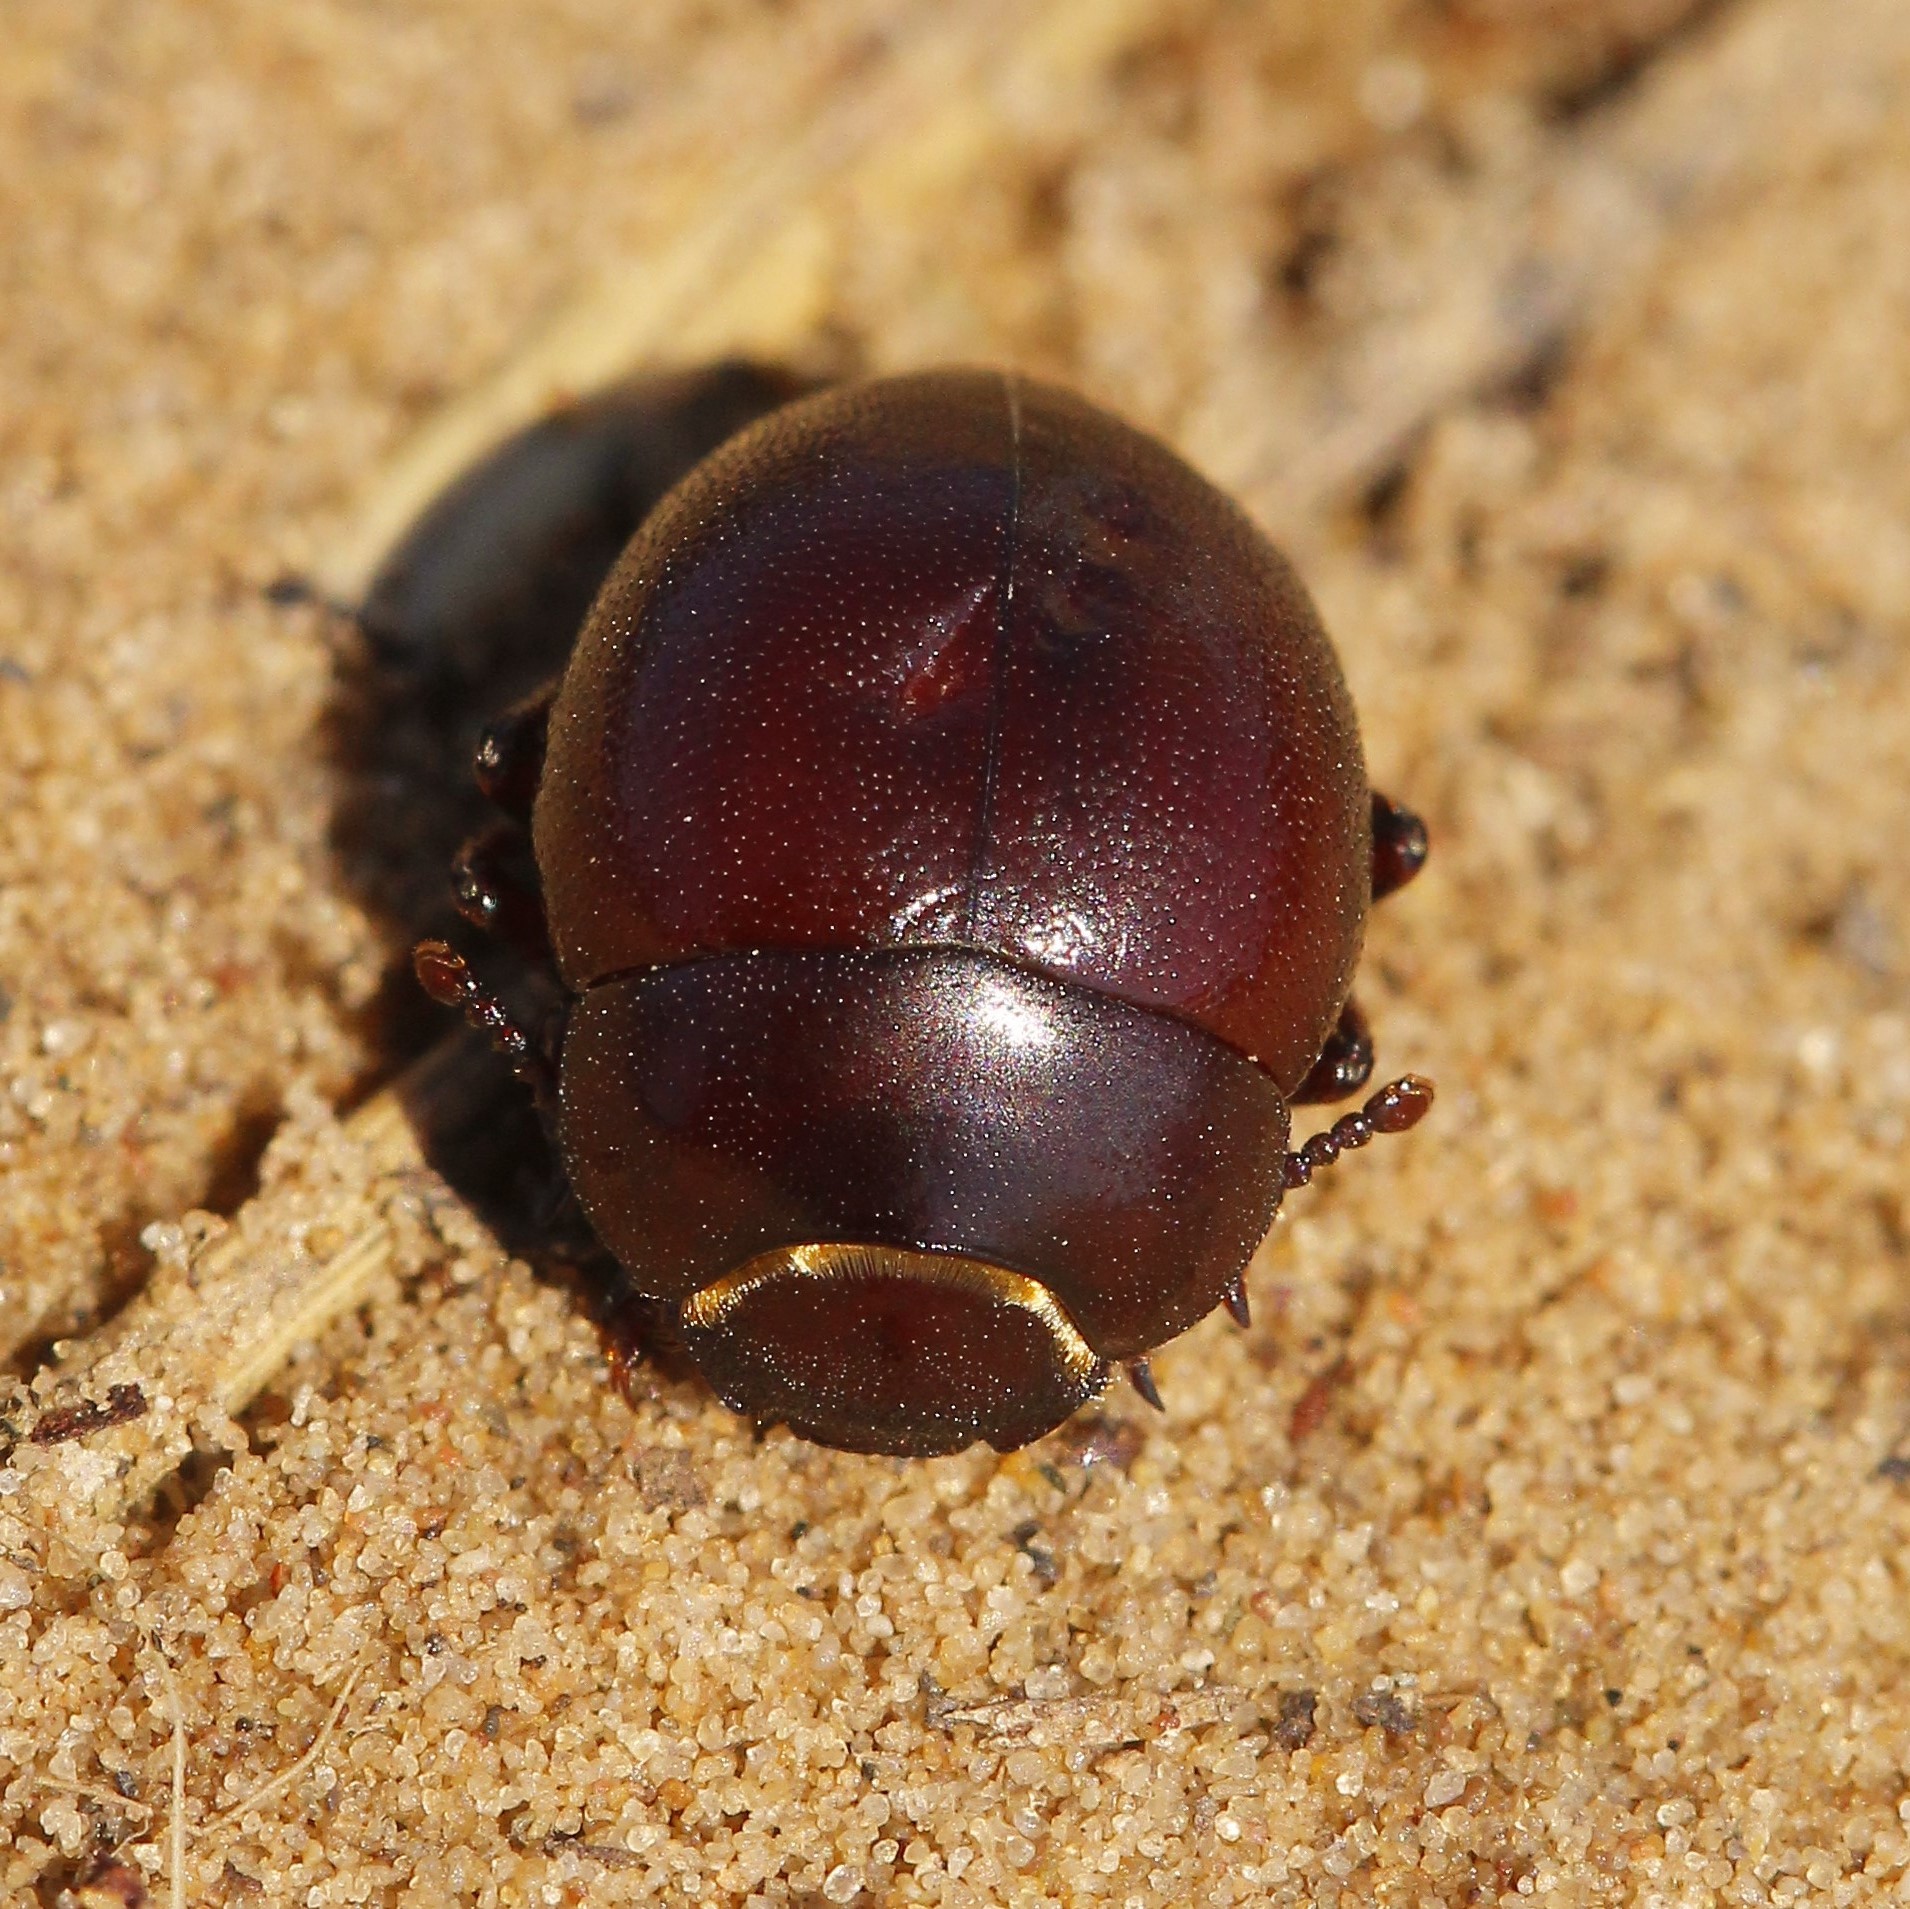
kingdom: Animalia
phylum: Arthropoda
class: Insecta
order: Coleoptera
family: Tenebrionidae
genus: Diaphanidus
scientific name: Diaphanidus
